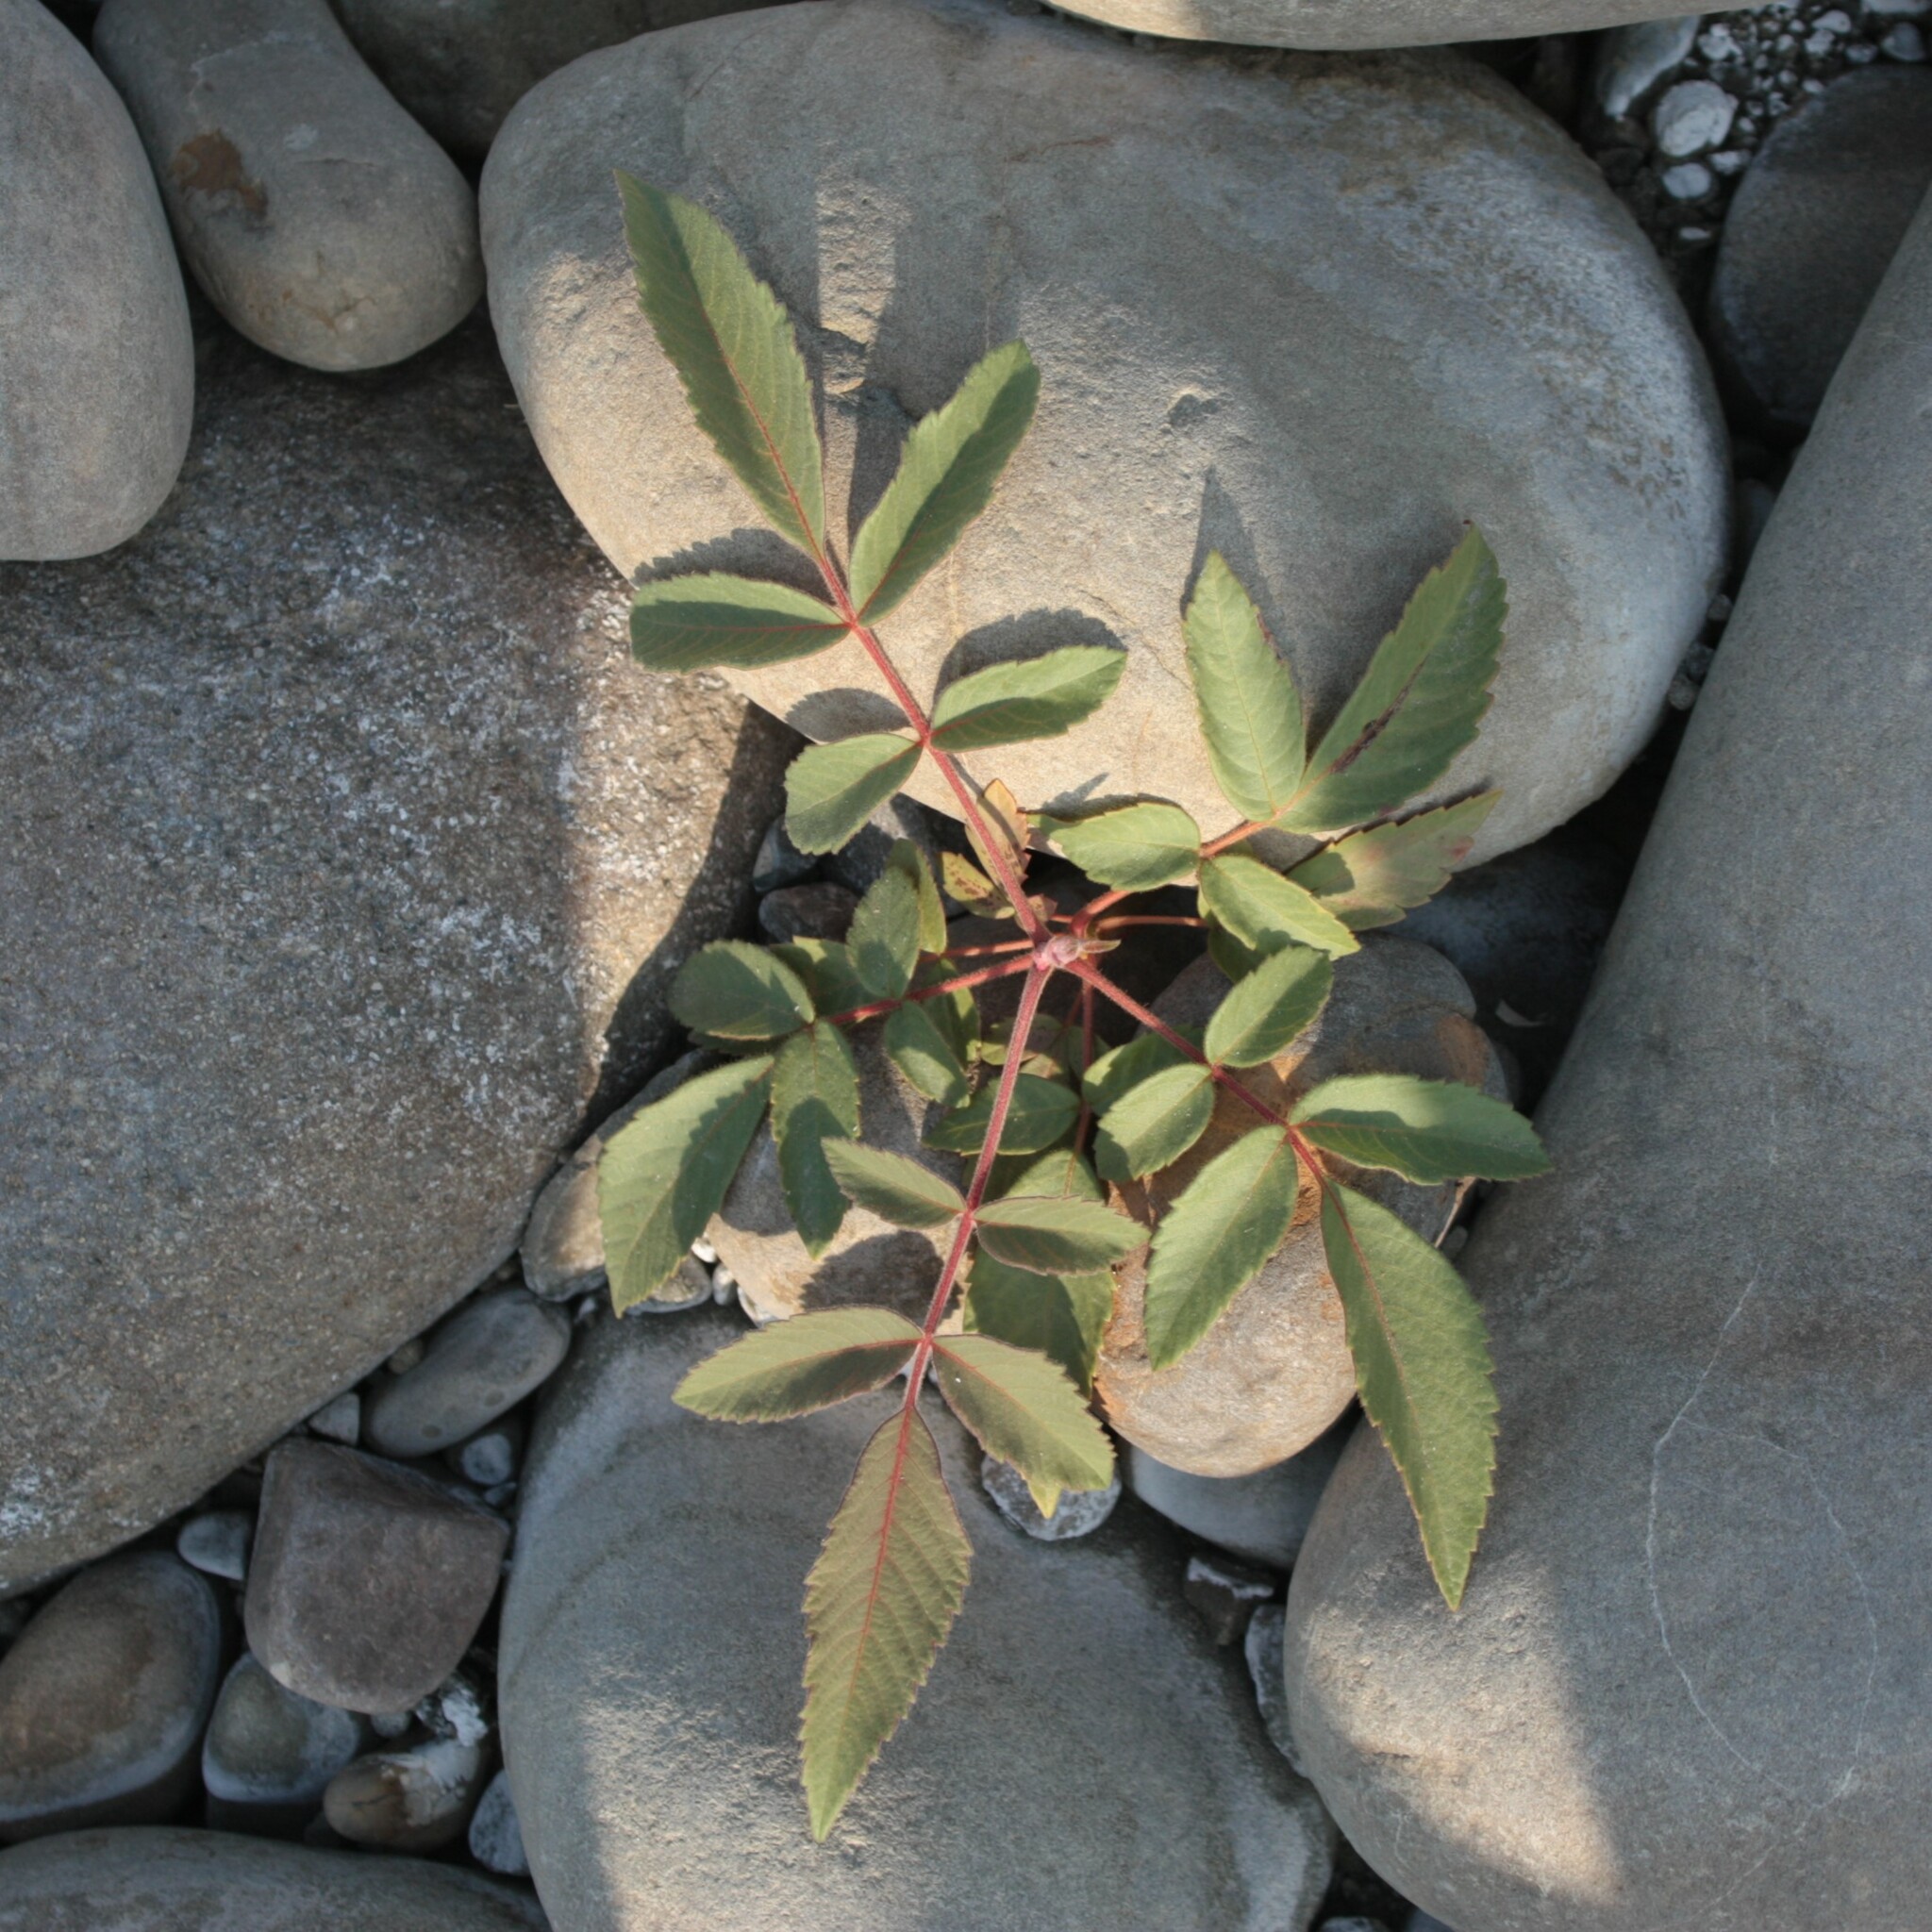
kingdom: Plantae
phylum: Tracheophyta
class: Magnoliopsida
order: Sapindales
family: Anacardiaceae
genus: Rhus
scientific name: Rhus chinensis
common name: Chinese gall
